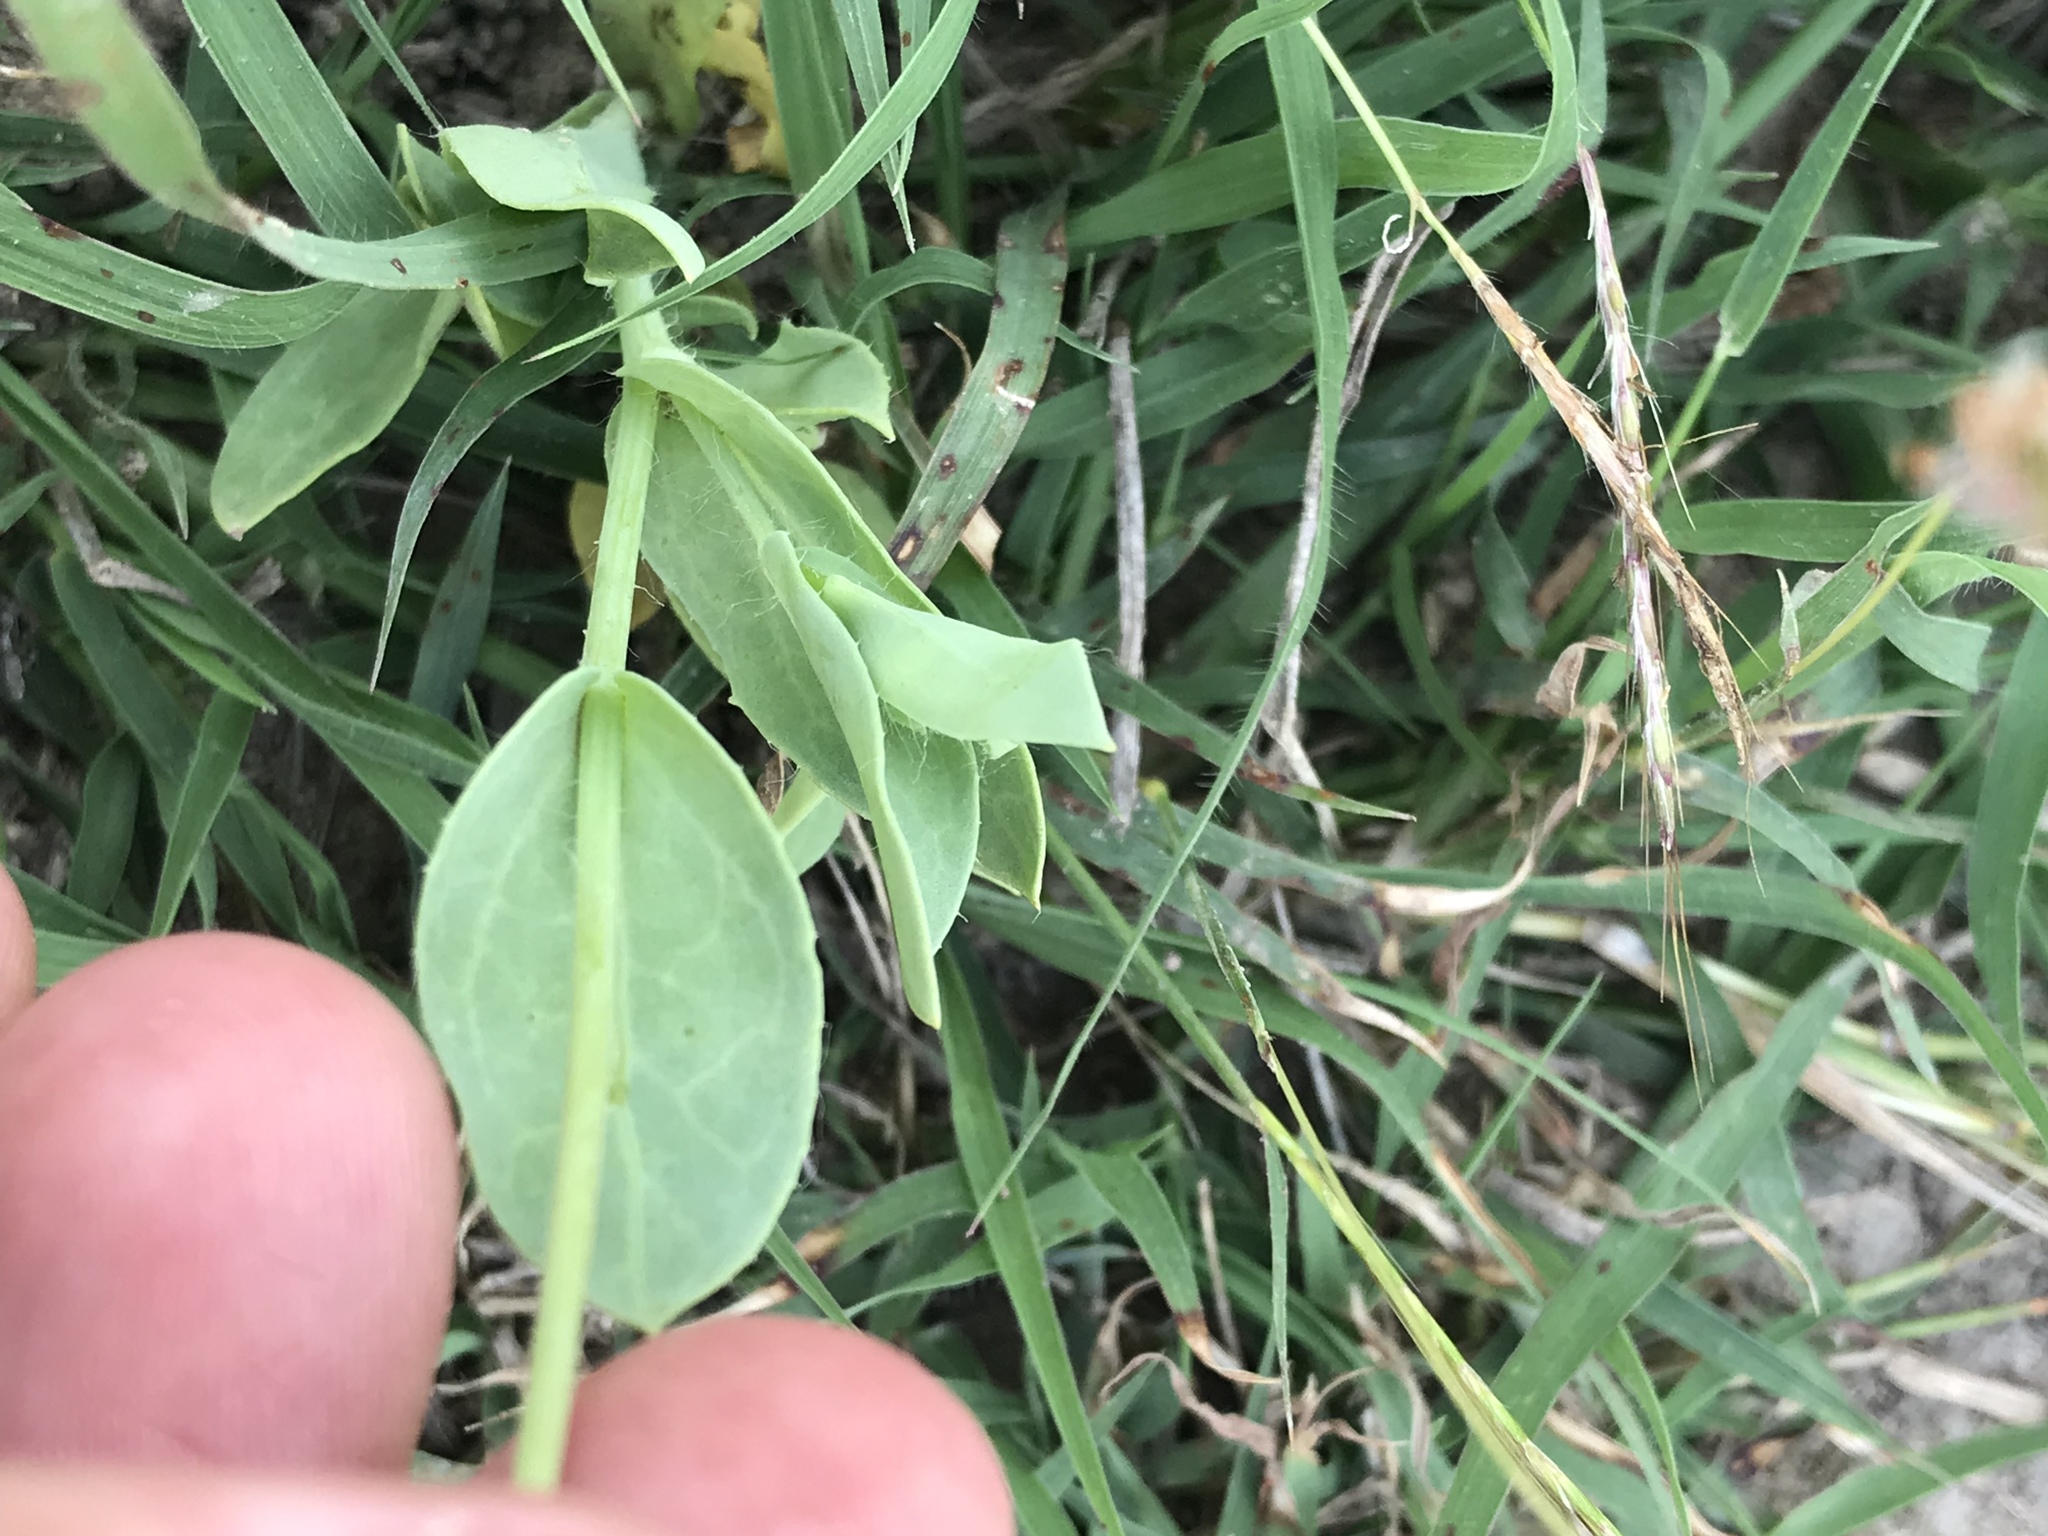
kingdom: Plantae
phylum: Tracheophyta
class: Magnoliopsida
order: Asterales
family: Asteraceae
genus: Amblyolepis
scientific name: Amblyolepis setigera
